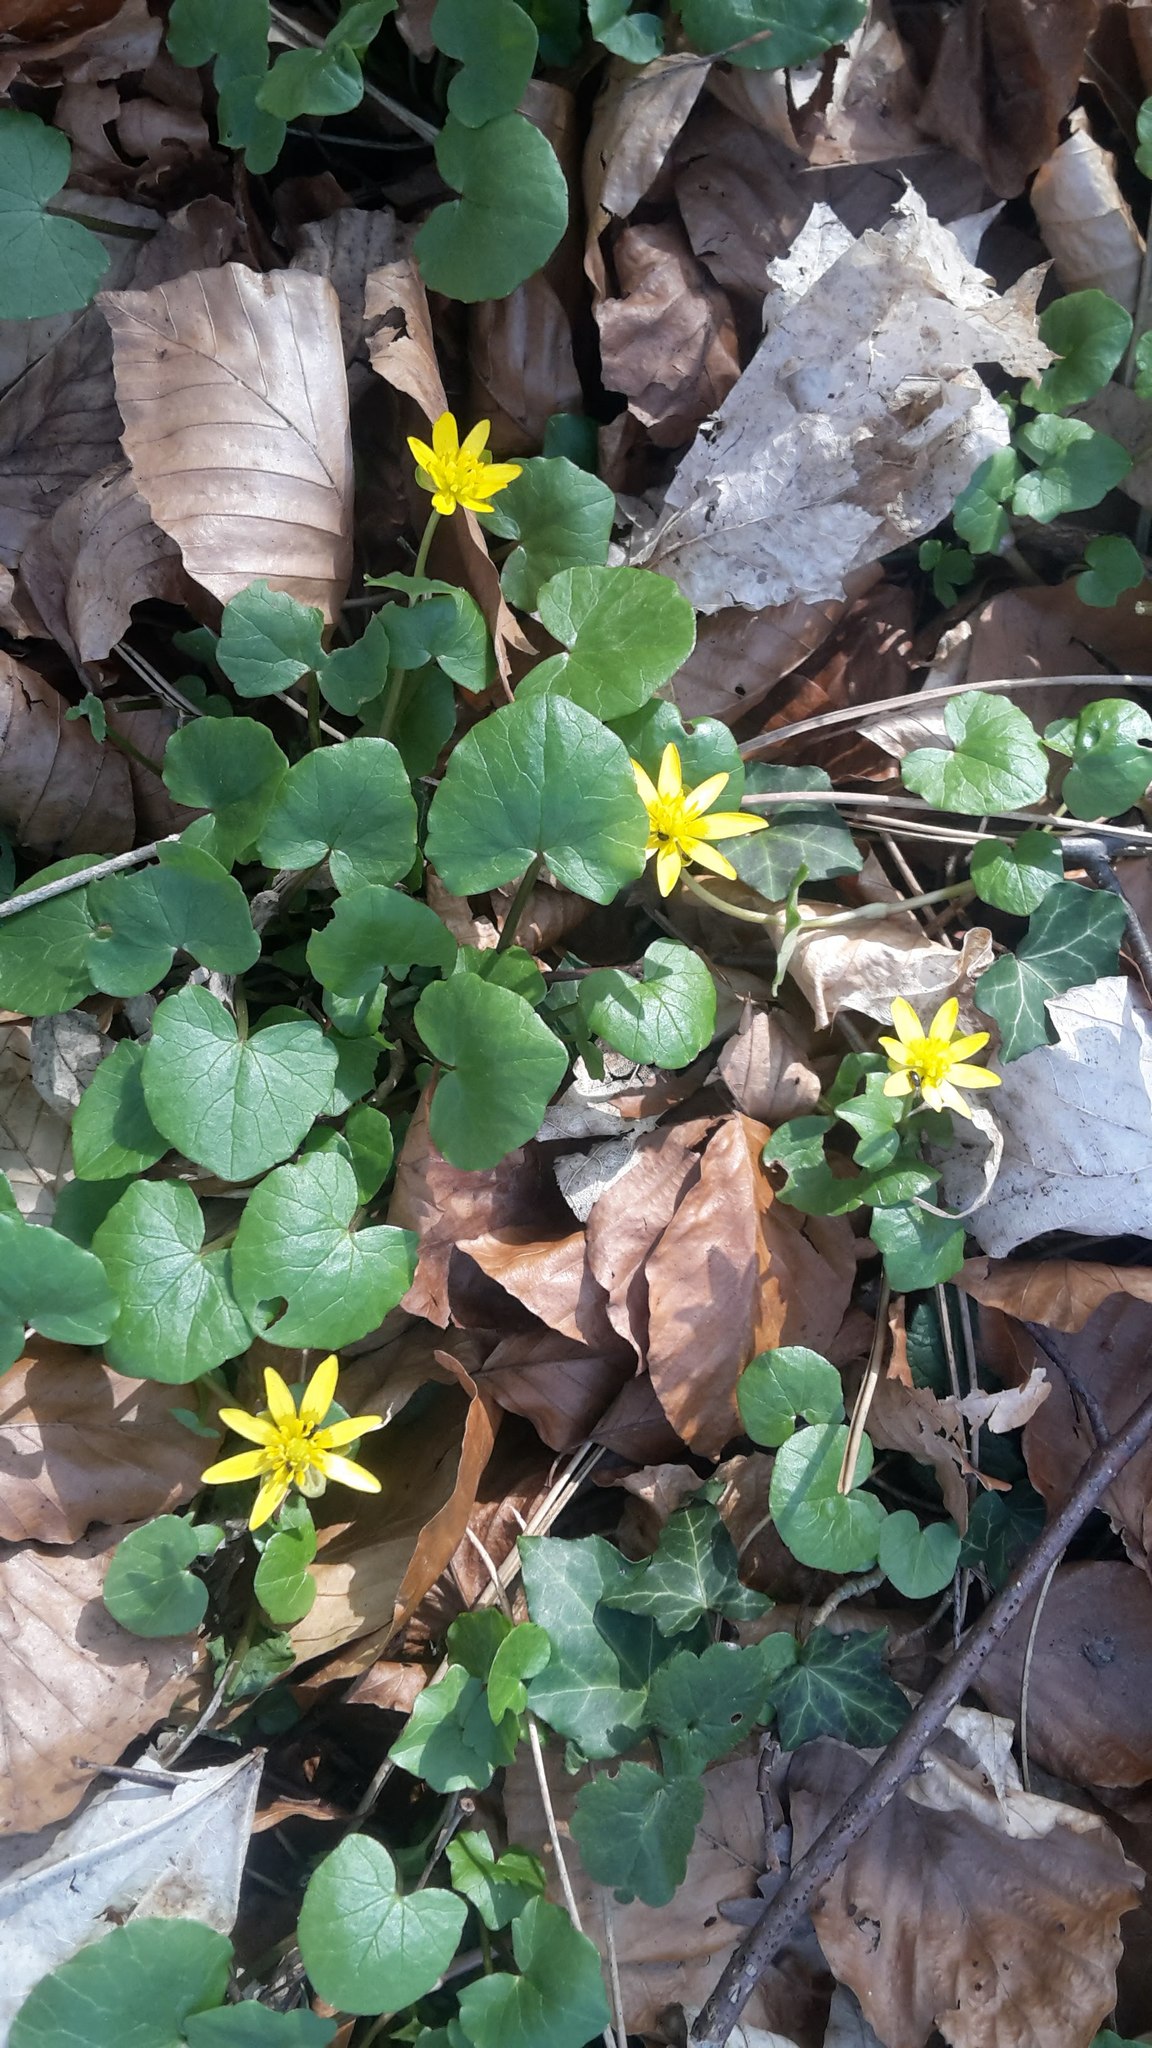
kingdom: Plantae
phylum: Tracheophyta
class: Magnoliopsida
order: Ranunculales
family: Ranunculaceae
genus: Ficaria
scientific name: Ficaria verna
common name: Lesser celandine
